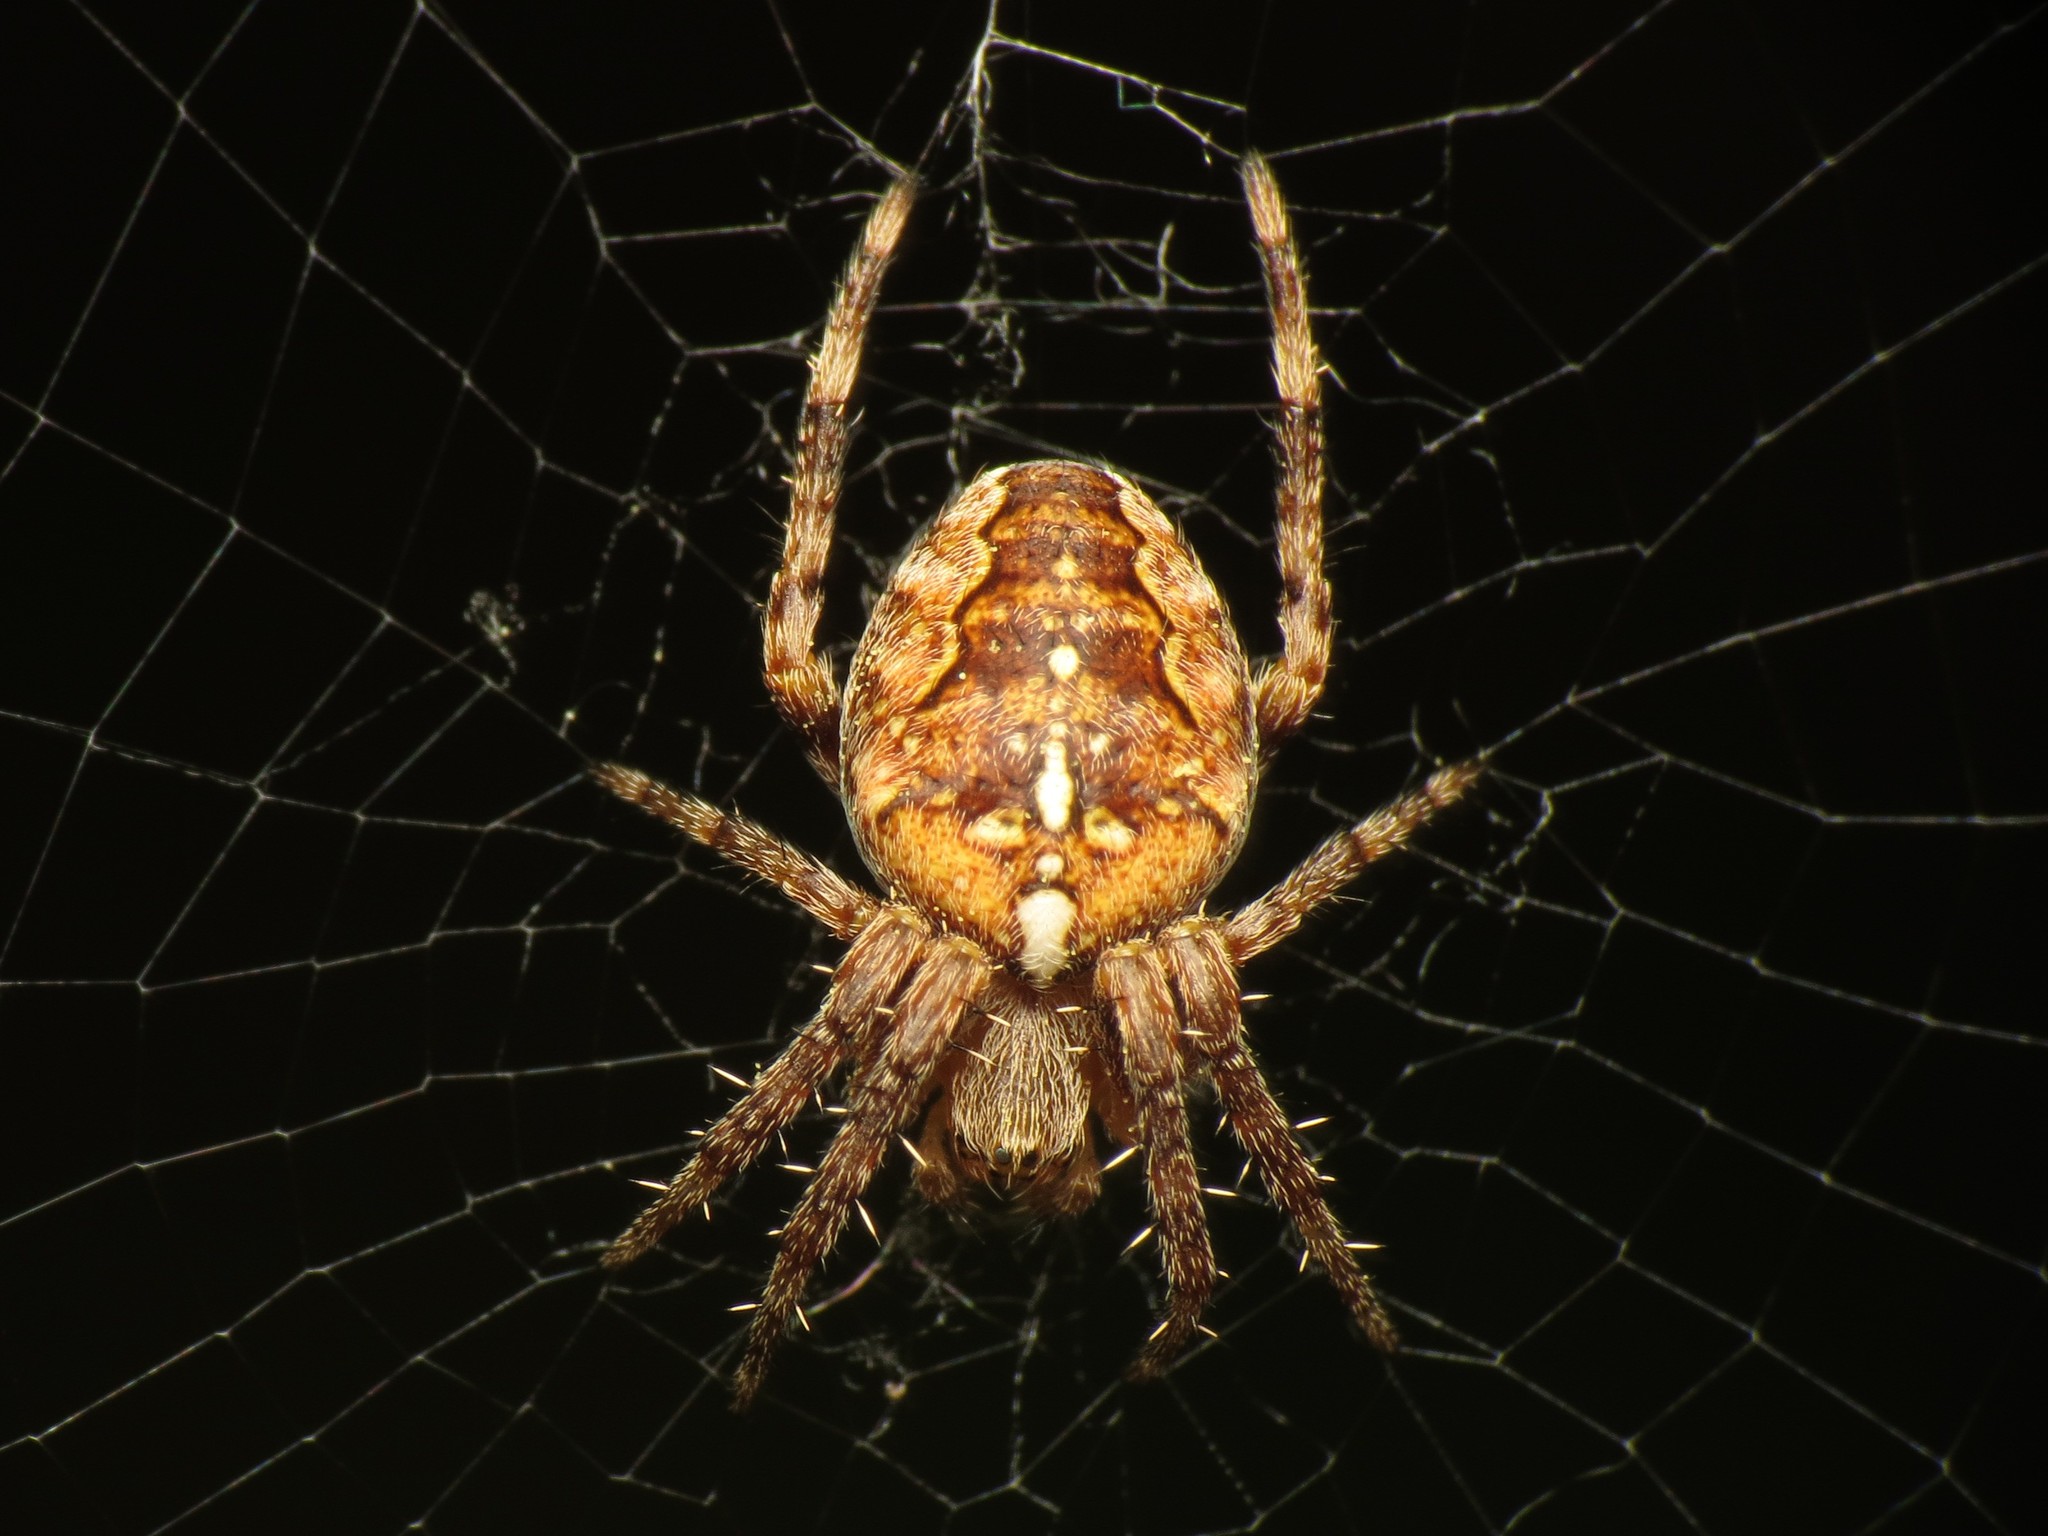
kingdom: Animalia
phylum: Arthropoda
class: Arachnida
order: Araneae
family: Araneidae
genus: Araneus
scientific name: Araneus diadematus
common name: Cross orbweaver
